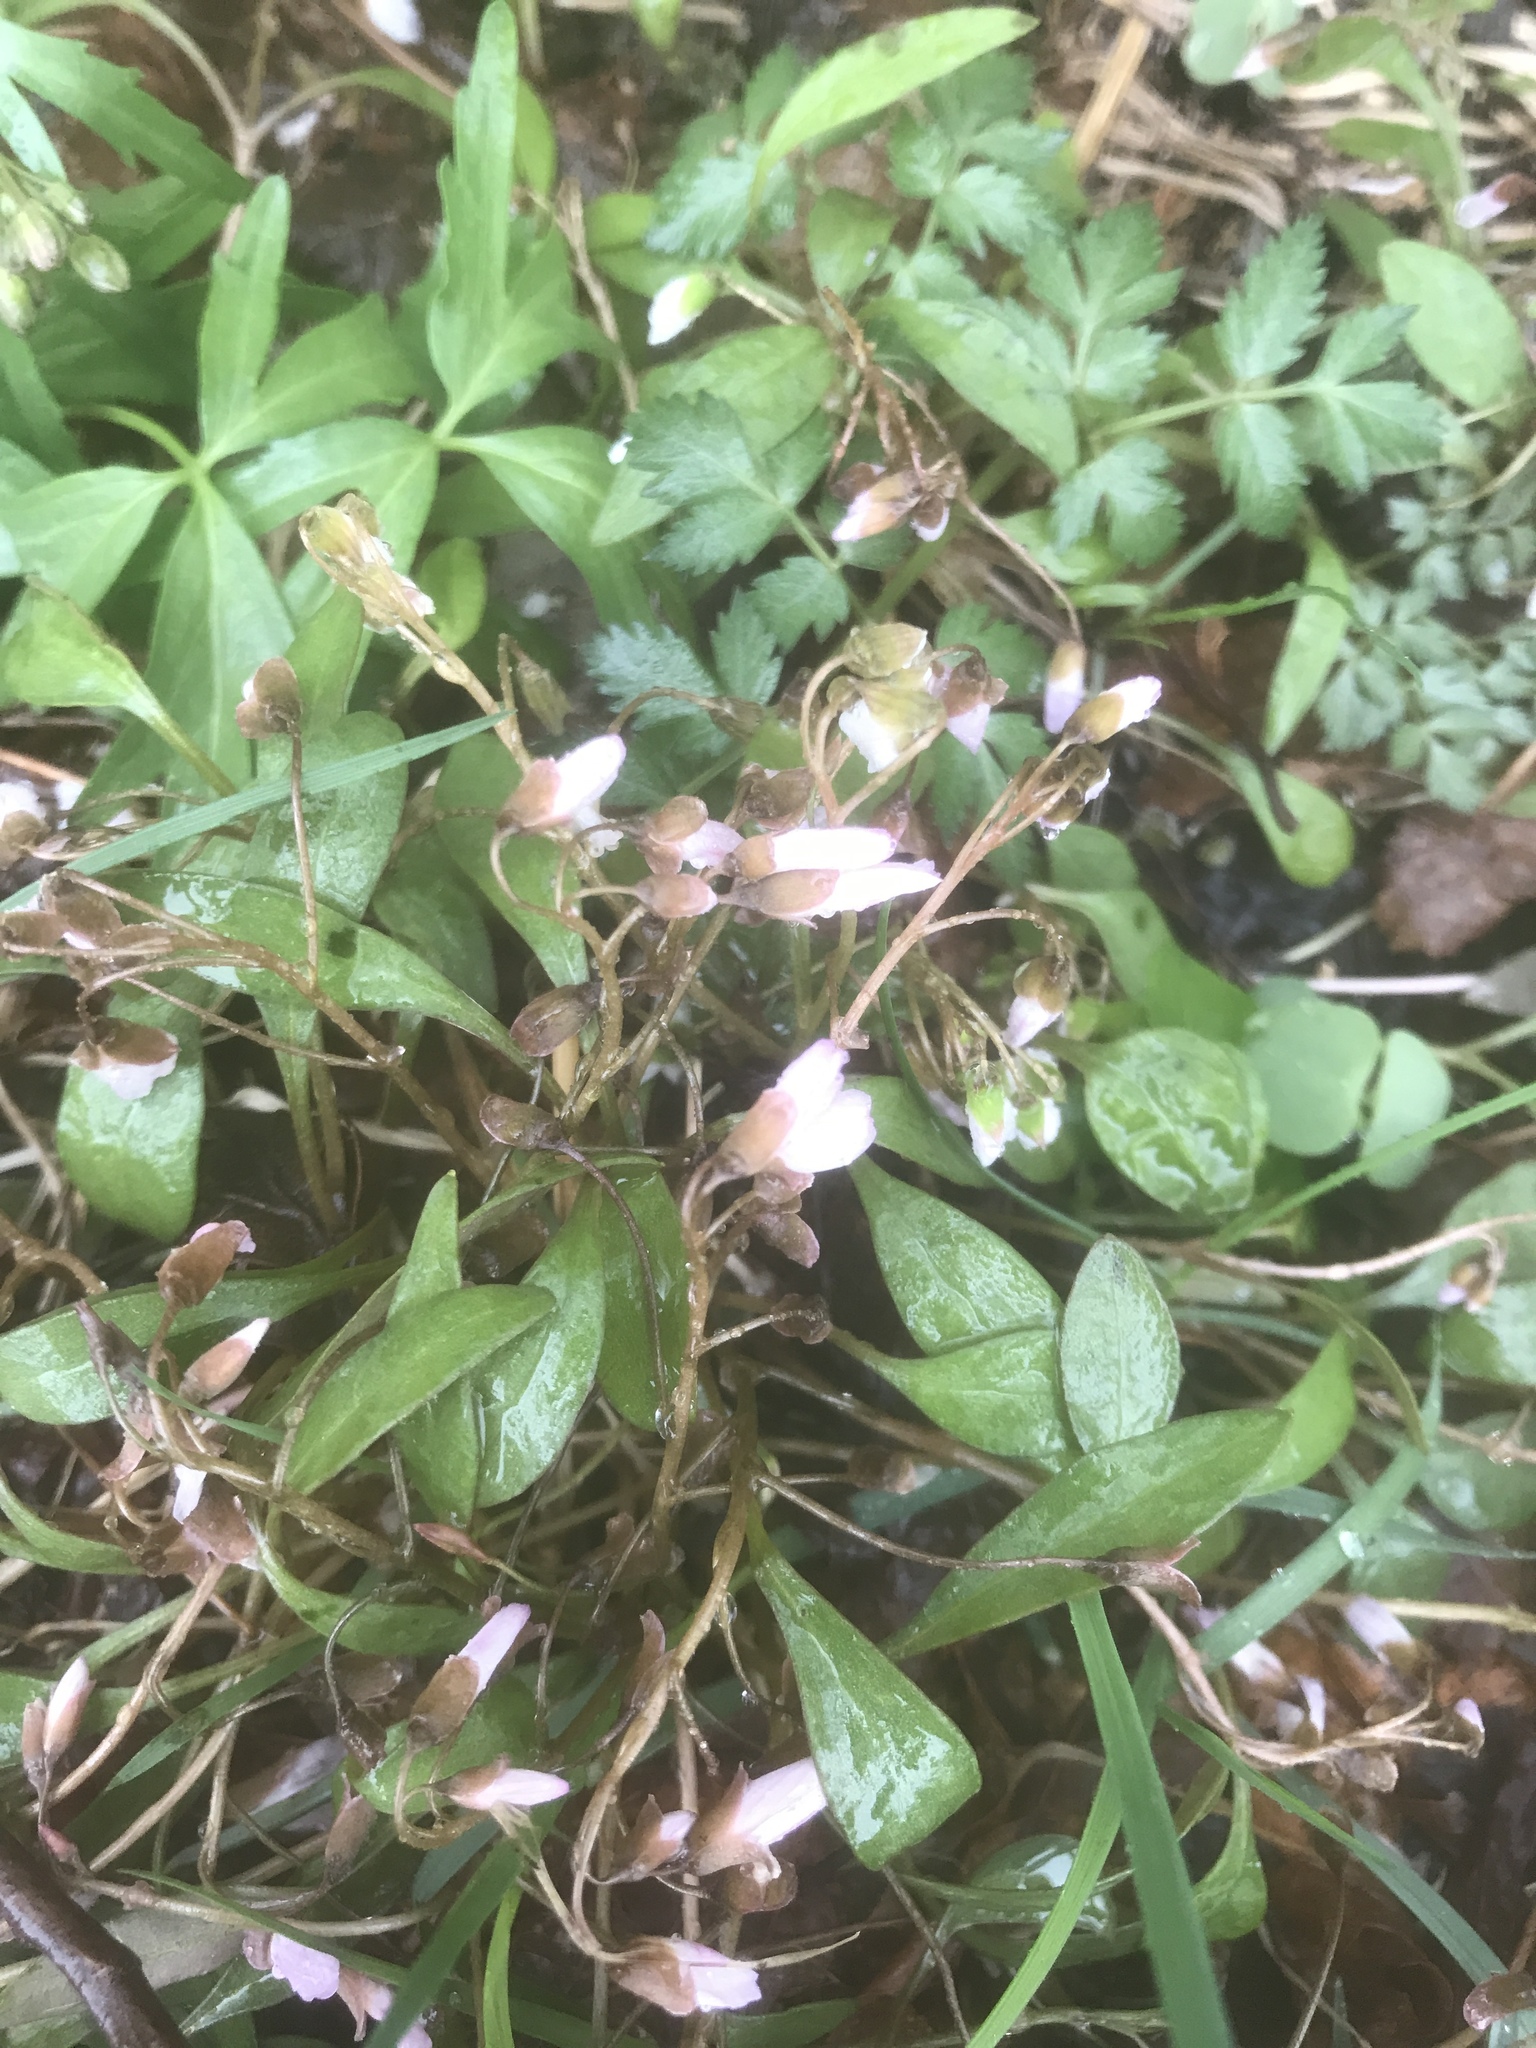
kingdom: Plantae
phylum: Tracheophyta
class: Magnoliopsida
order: Caryophyllales
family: Montiaceae
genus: Claytonia
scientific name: Claytonia caroliniana
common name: Carolina spring beauty
